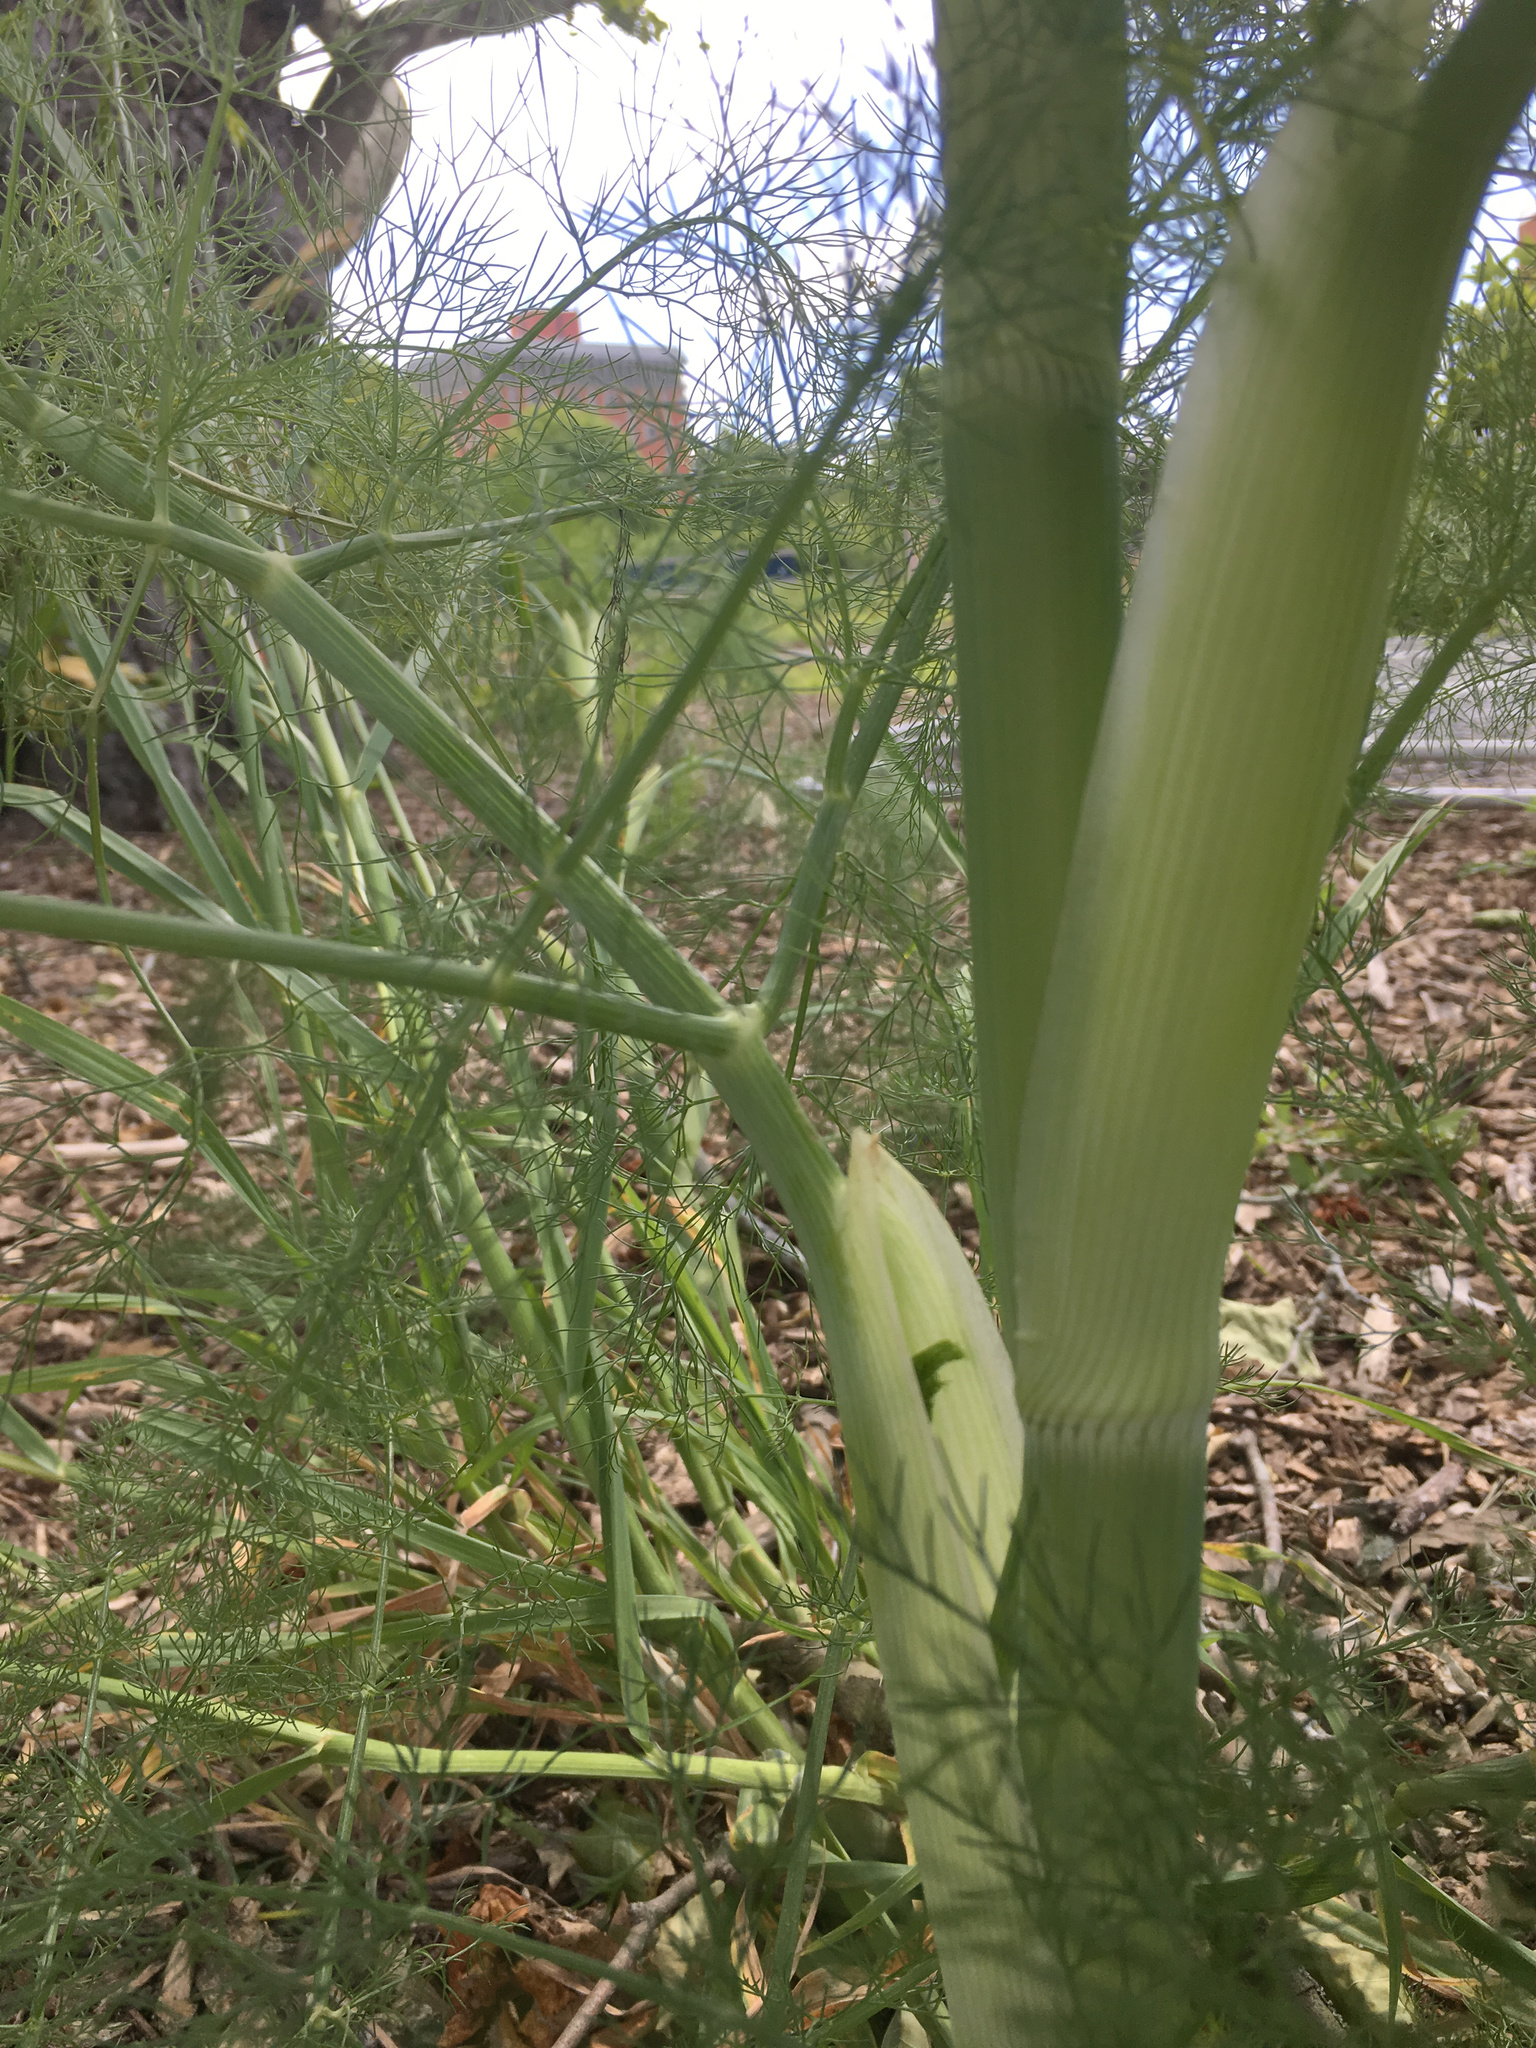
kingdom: Plantae
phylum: Tracheophyta
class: Magnoliopsida
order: Apiales
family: Apiaceae
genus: Foeniculum
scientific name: Foeniculum vulgare
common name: Fennel
